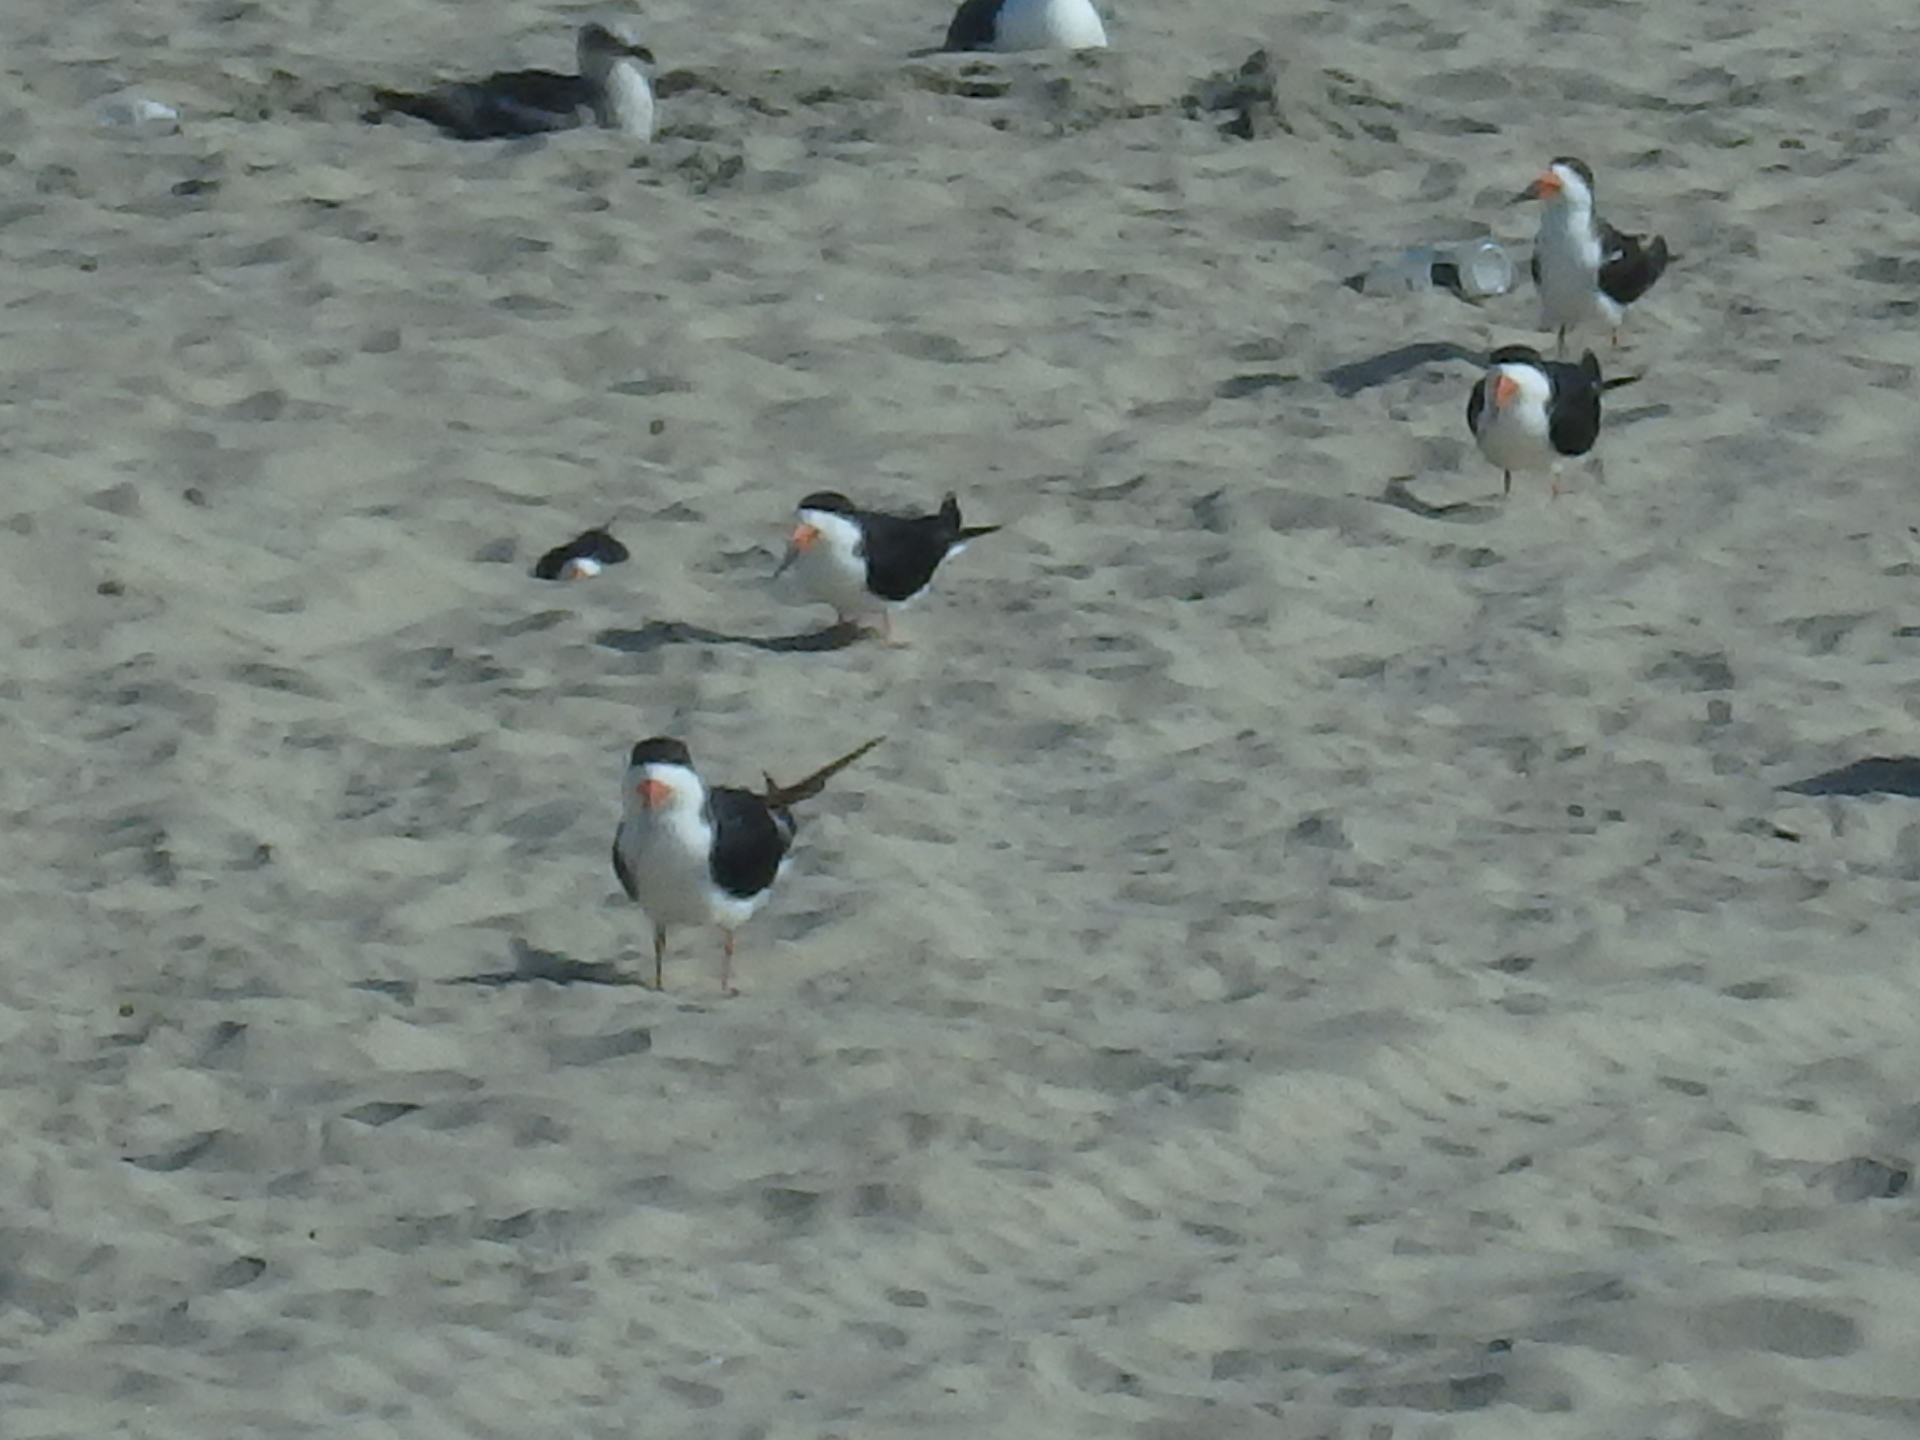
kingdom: Animalia
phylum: Chordata
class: Aves
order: Charadriiformes
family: Laridae
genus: Rynchops
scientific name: Rynchops niger
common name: Black skimmer
